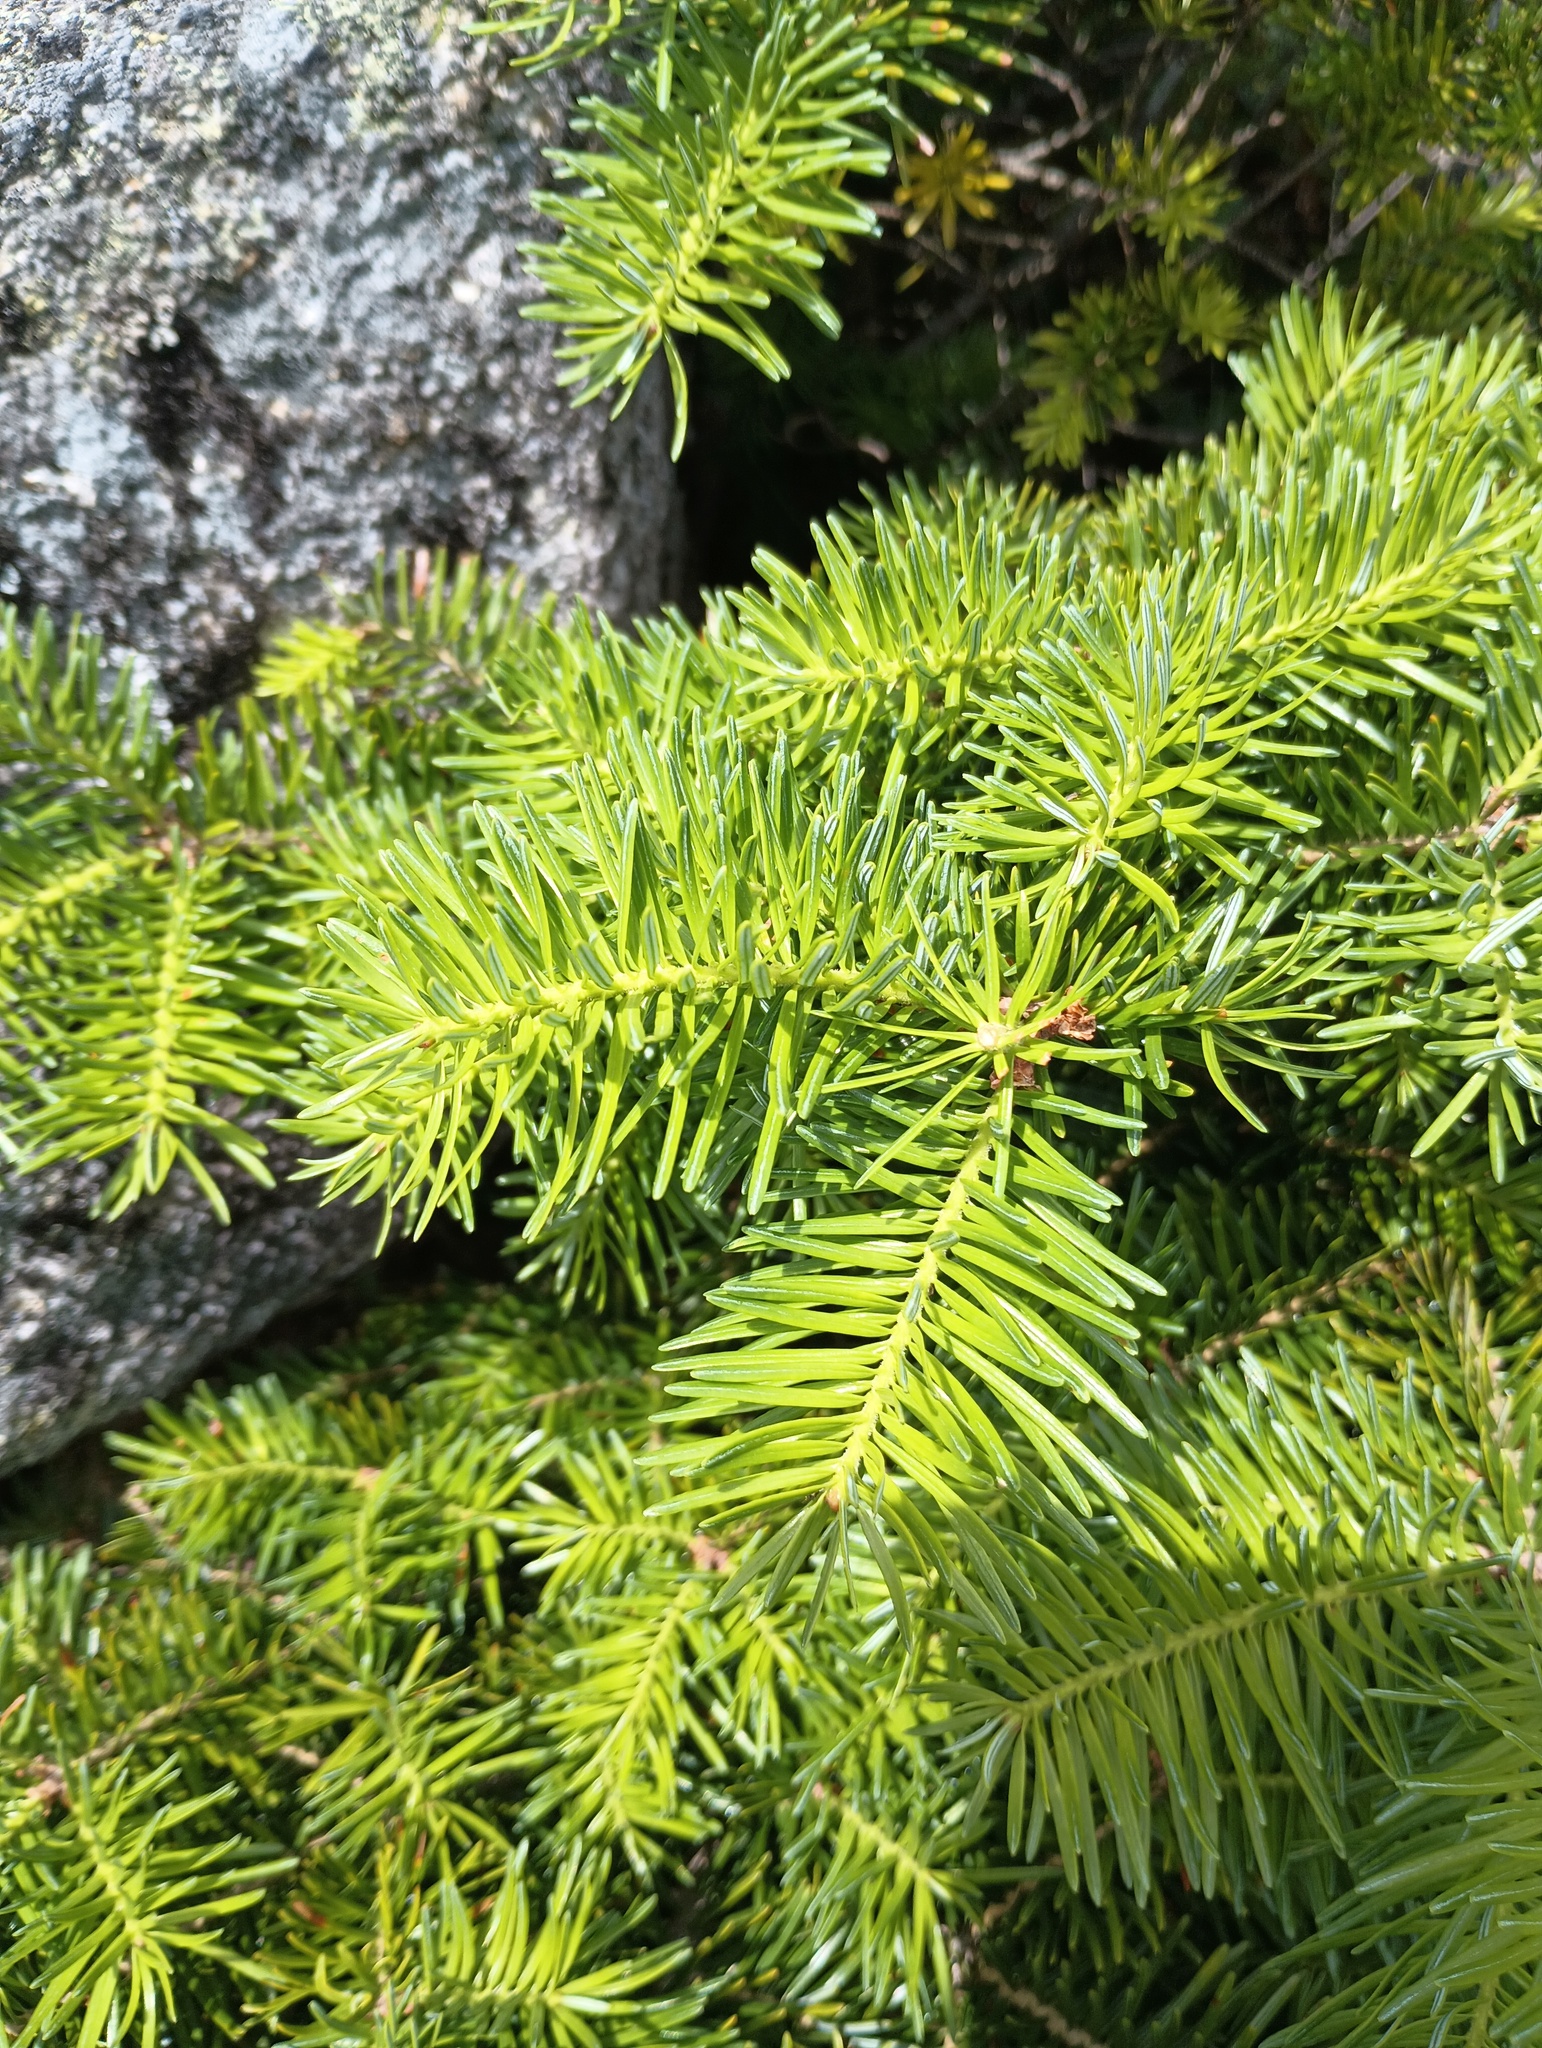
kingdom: Plantae
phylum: Tracheophyta
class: Pinopsida
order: Pinales
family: Pinaceae
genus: Picea
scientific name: Picea rubens
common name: Red spruce
